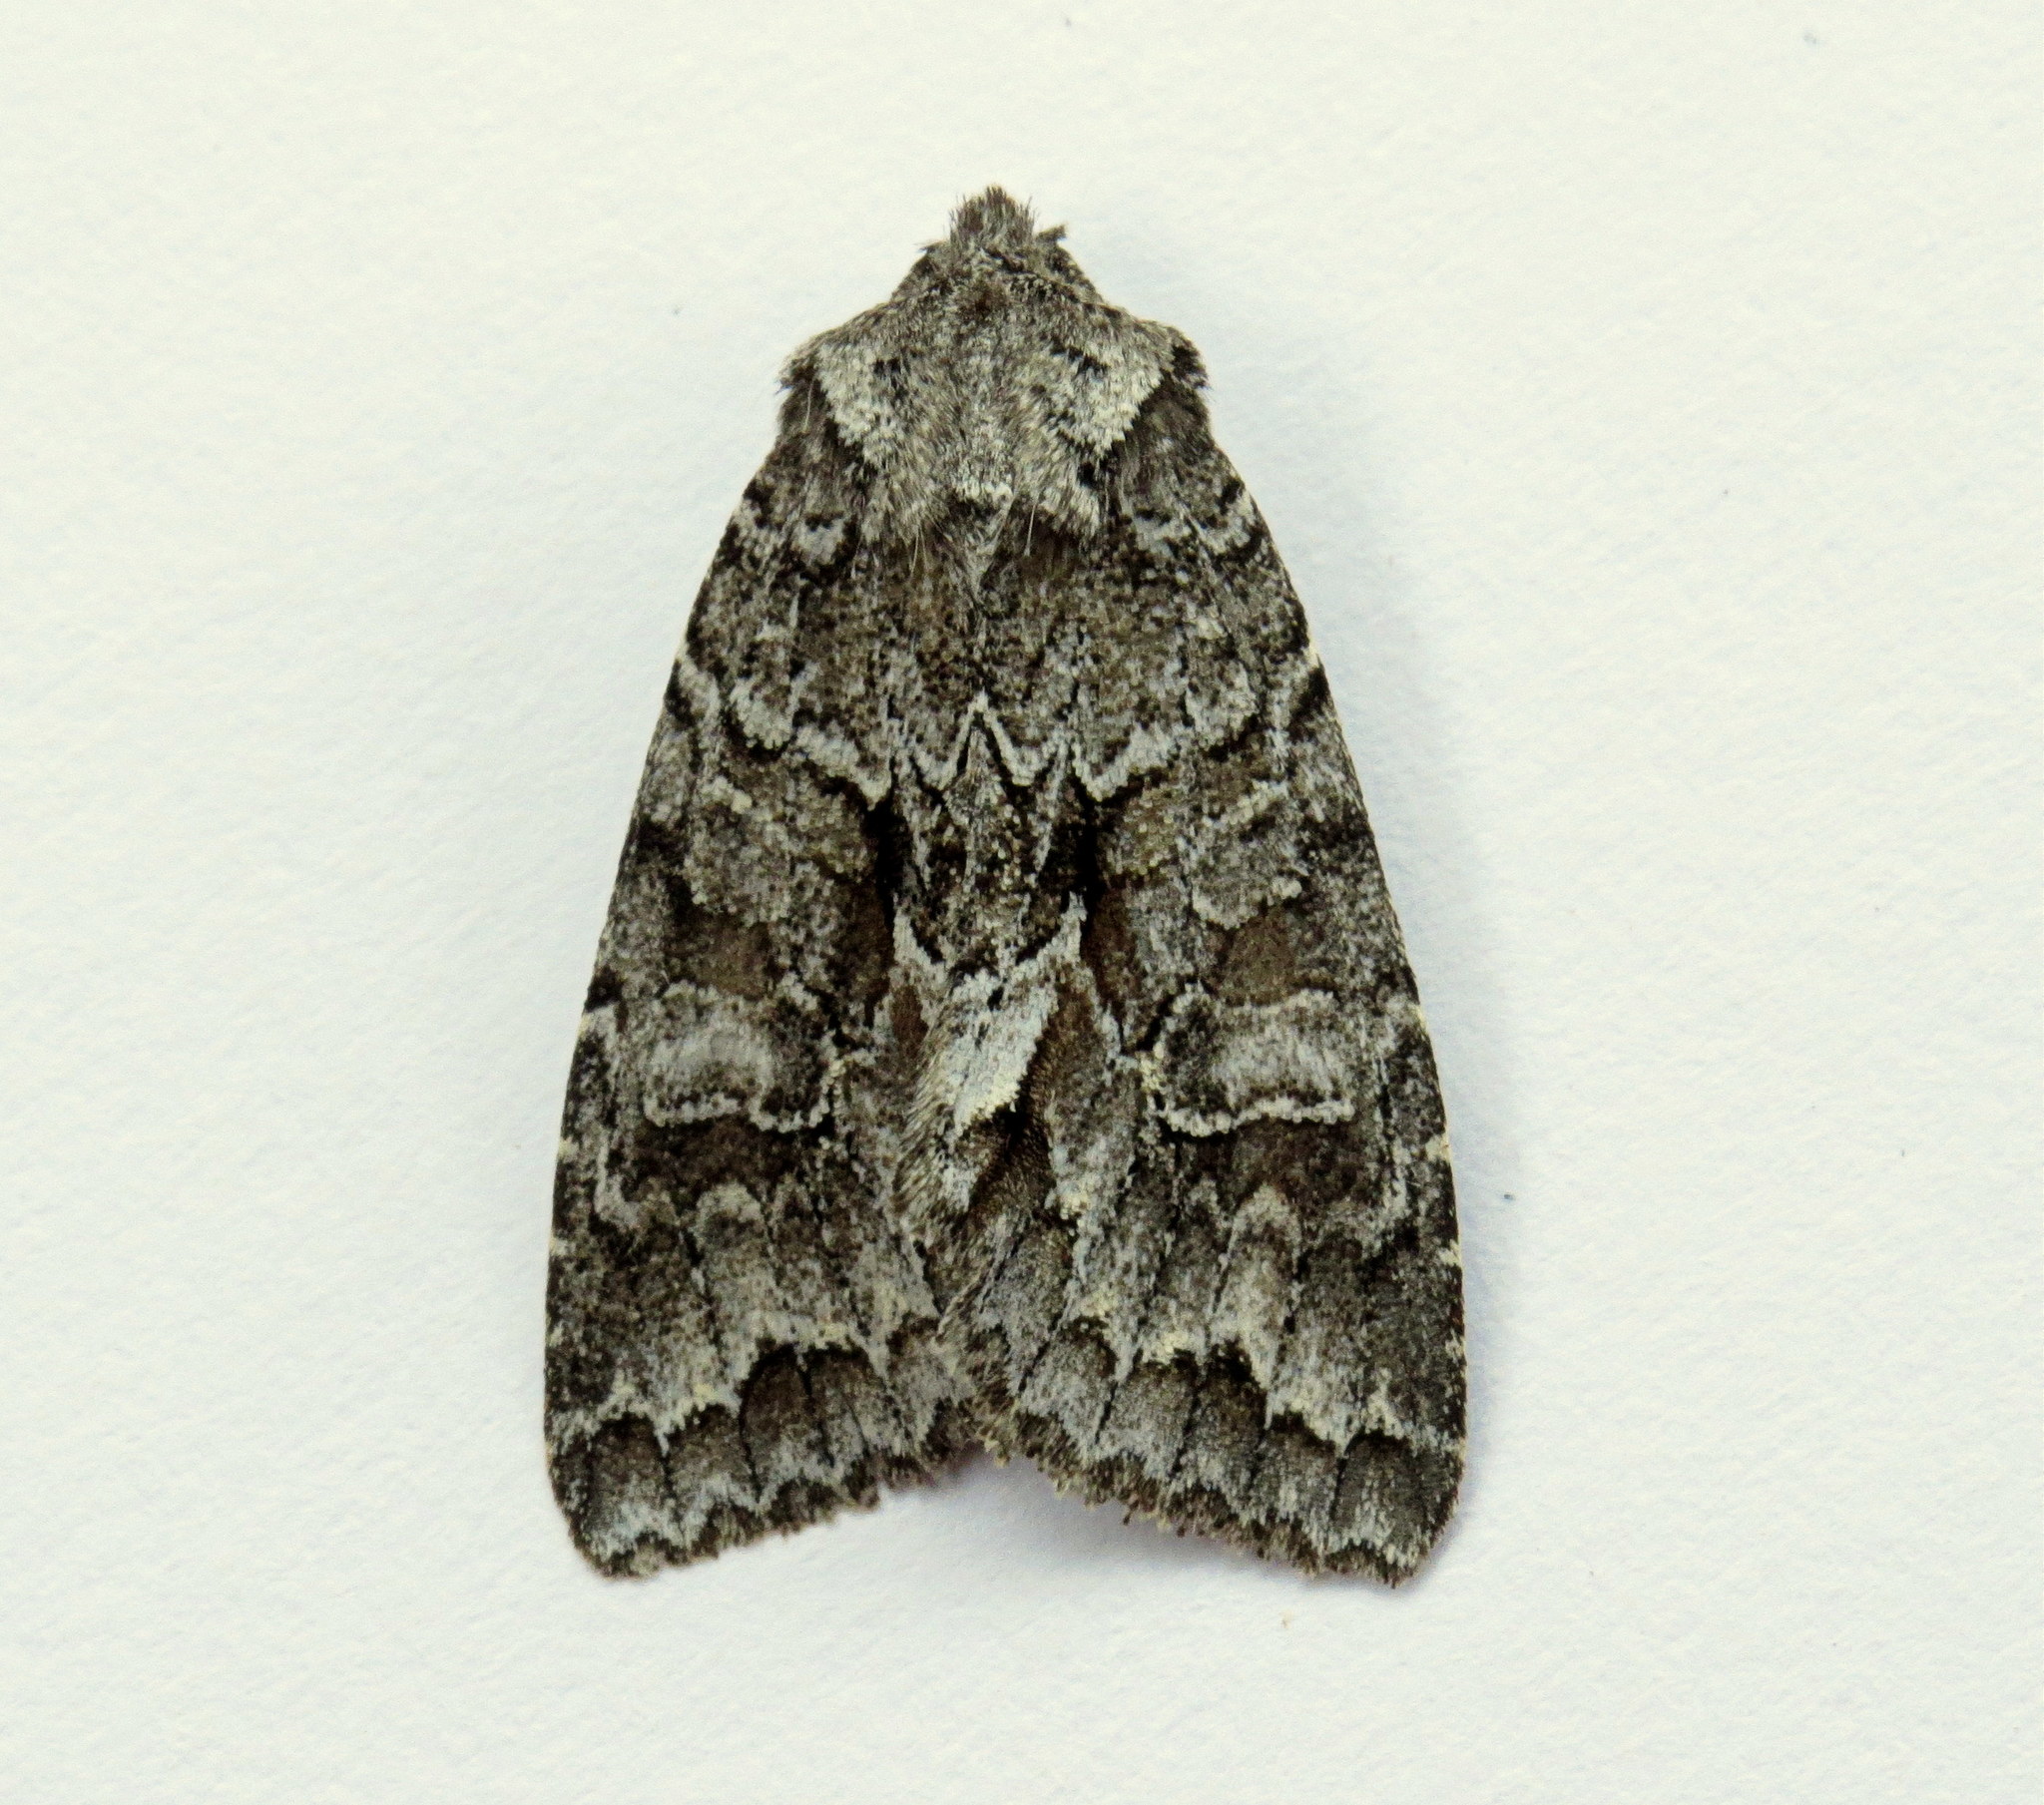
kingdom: Animalia
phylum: Arthropoda
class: Insecta
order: Lepidoptera
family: Noctuidae
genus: Xylotype
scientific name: Xylotype arcadia
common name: Acadian sallow
